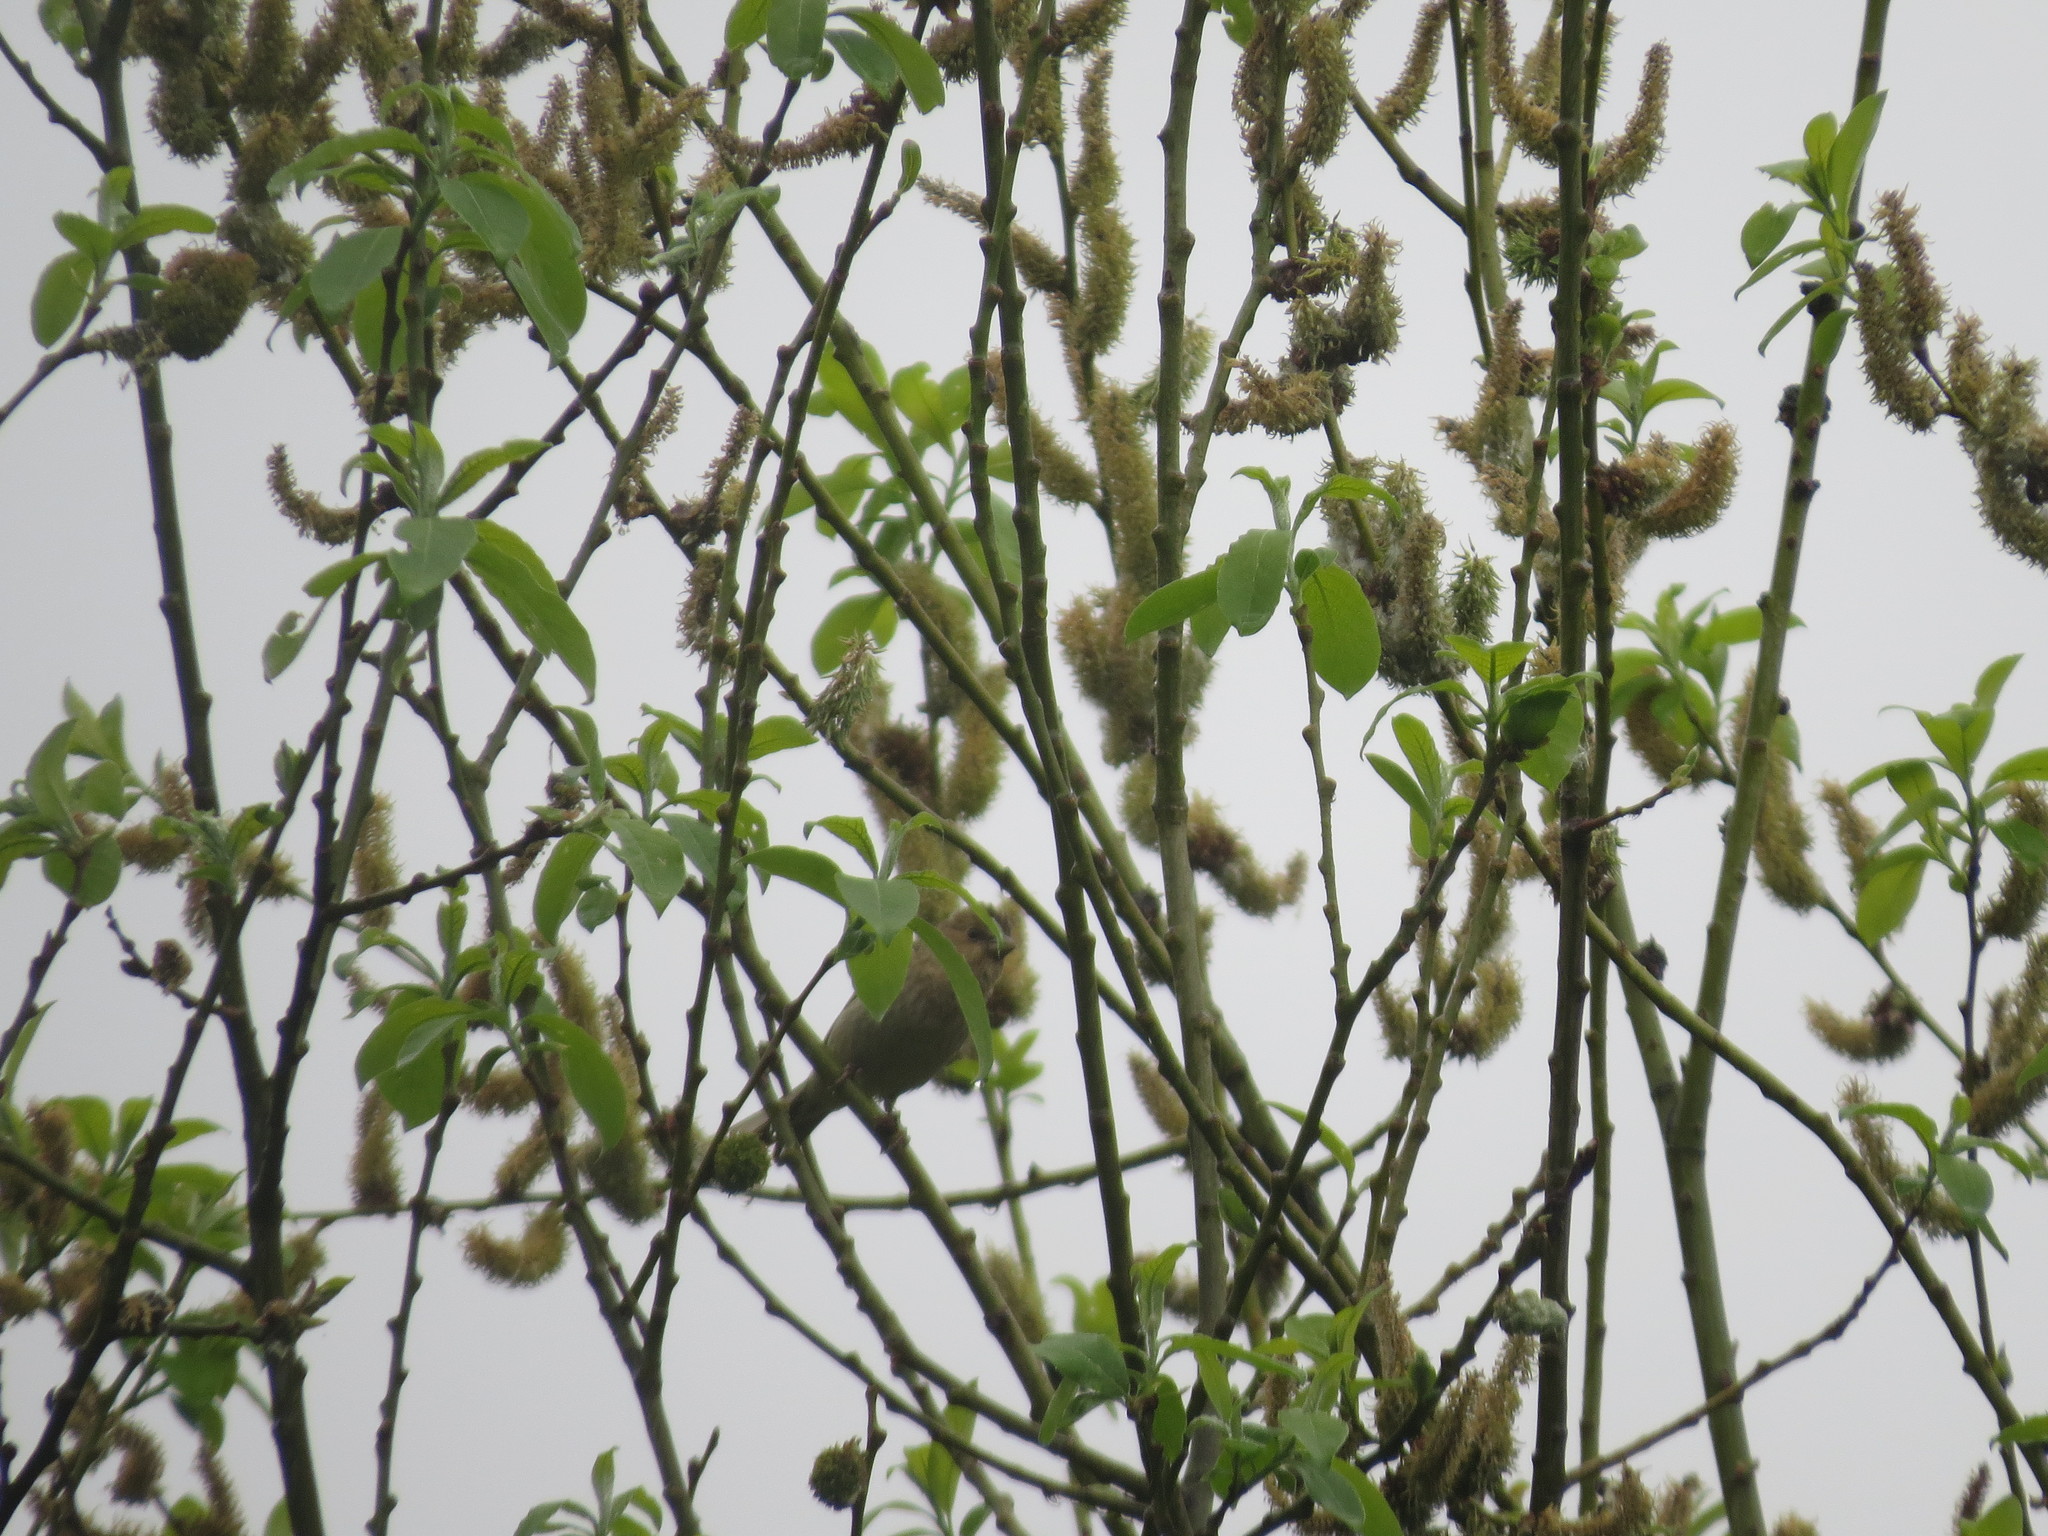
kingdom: Animalia
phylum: Chordata
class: Aves
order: Passeriformes
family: Fringillidae
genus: Carpodacus
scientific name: Carpodacus erythrinus
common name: Common rosefinch
